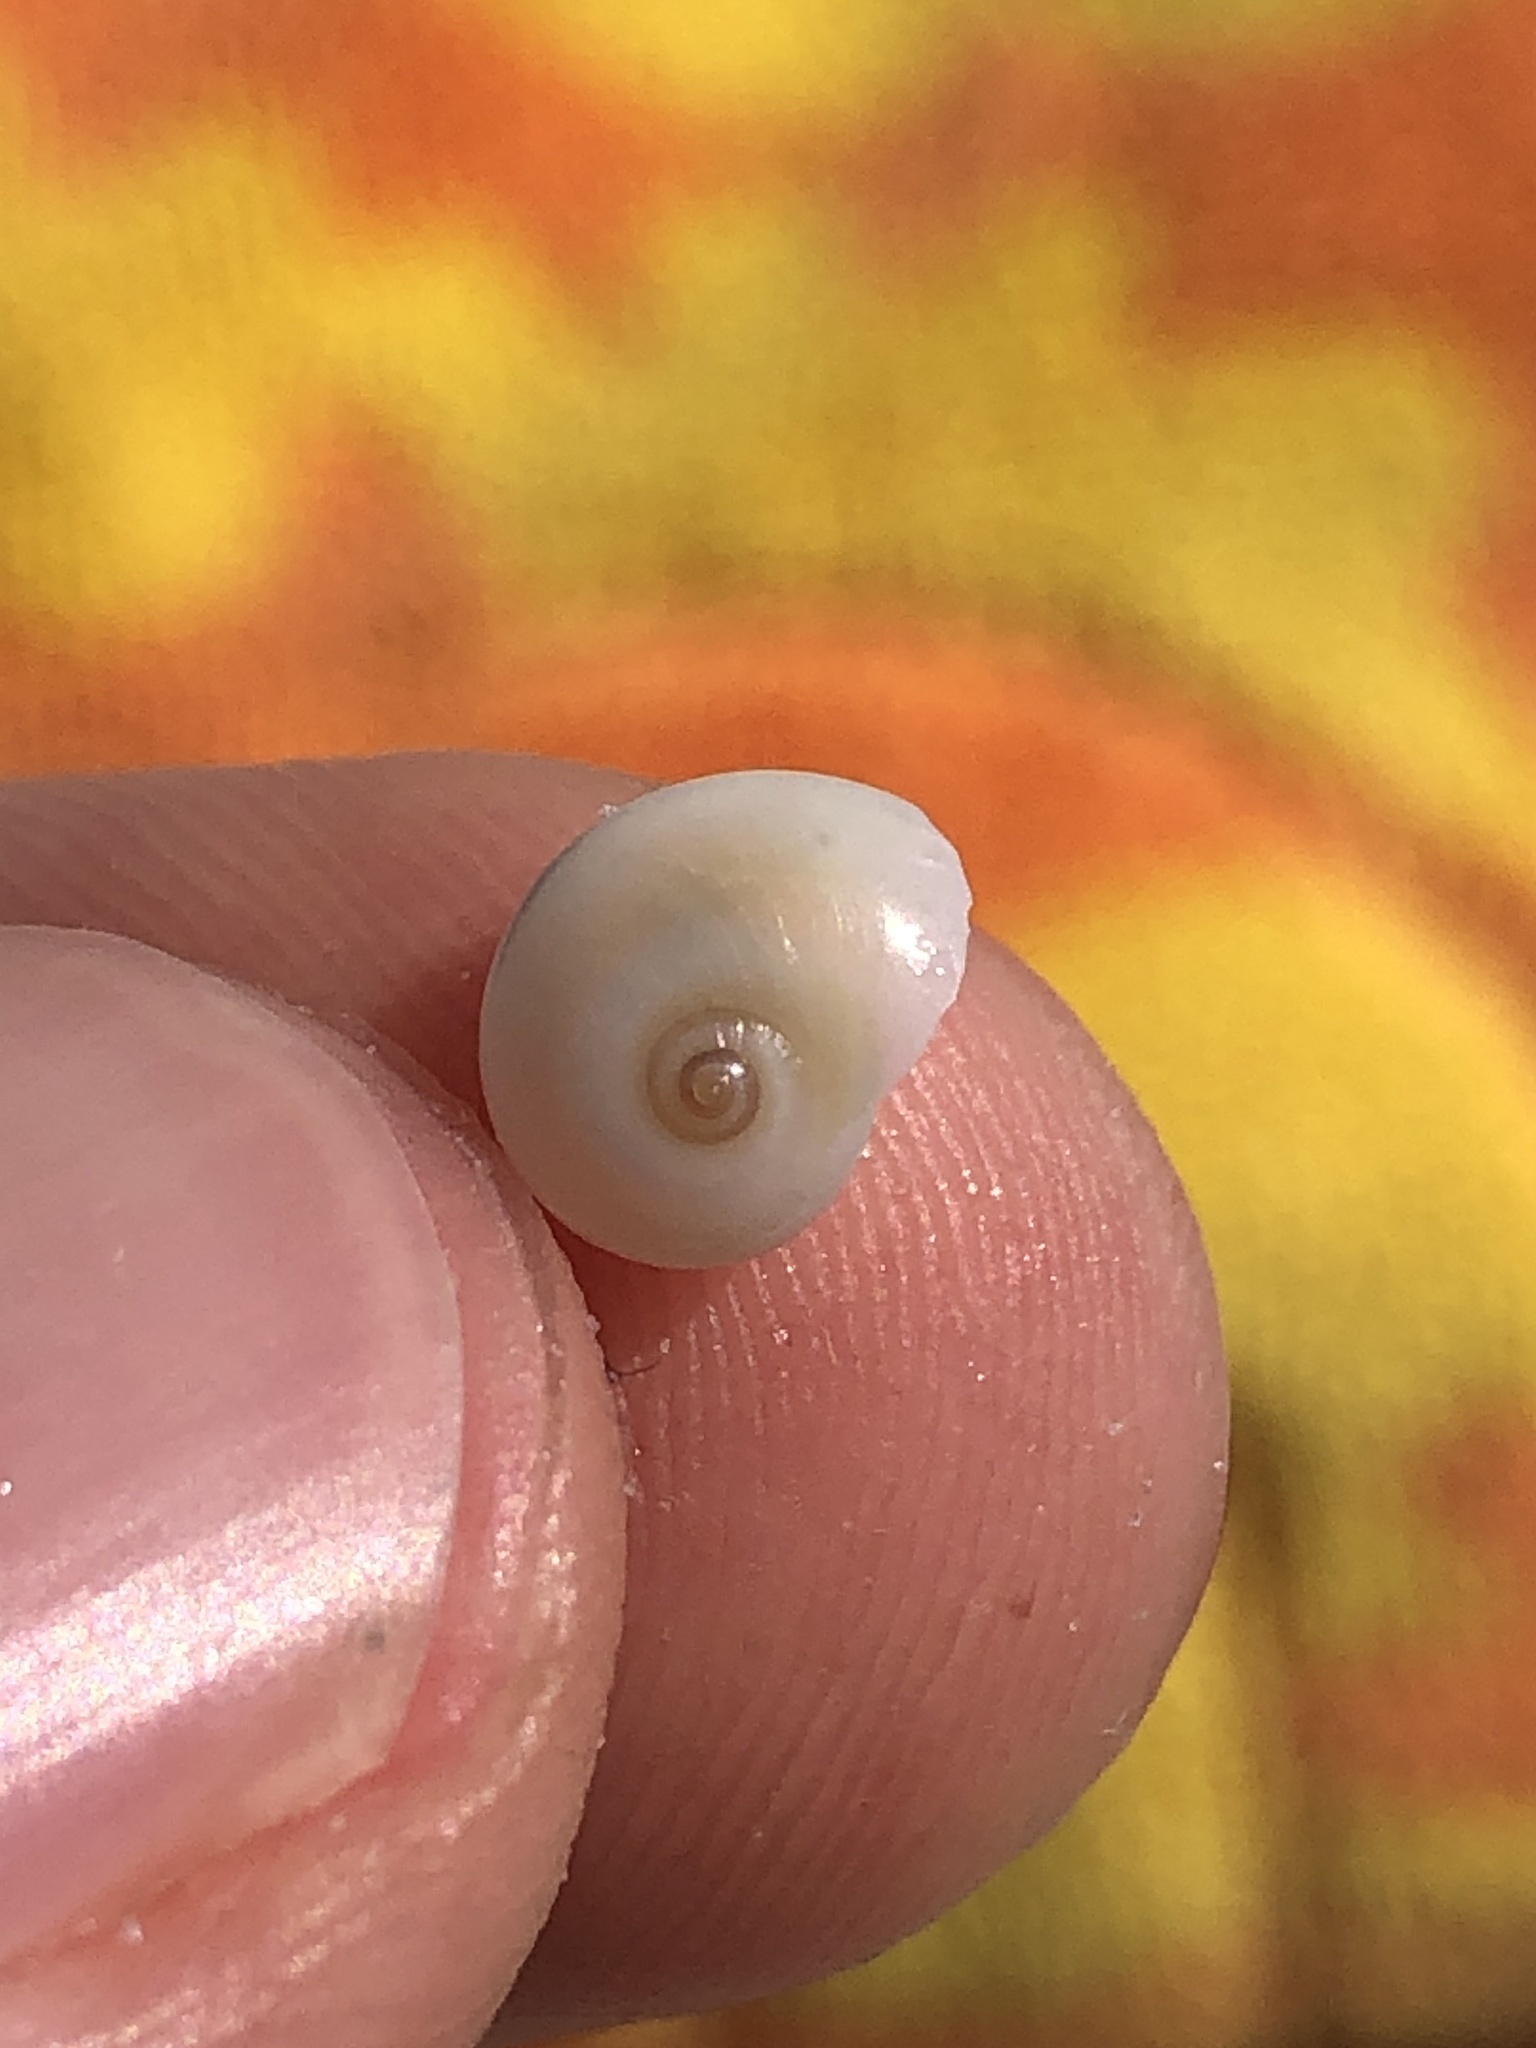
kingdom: Animalia
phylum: Mollusca
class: Gastropoda
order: Littorinimorpha
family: Naticidae
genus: Neverita
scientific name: Neverita duplicata
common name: Lobed moonsnail
